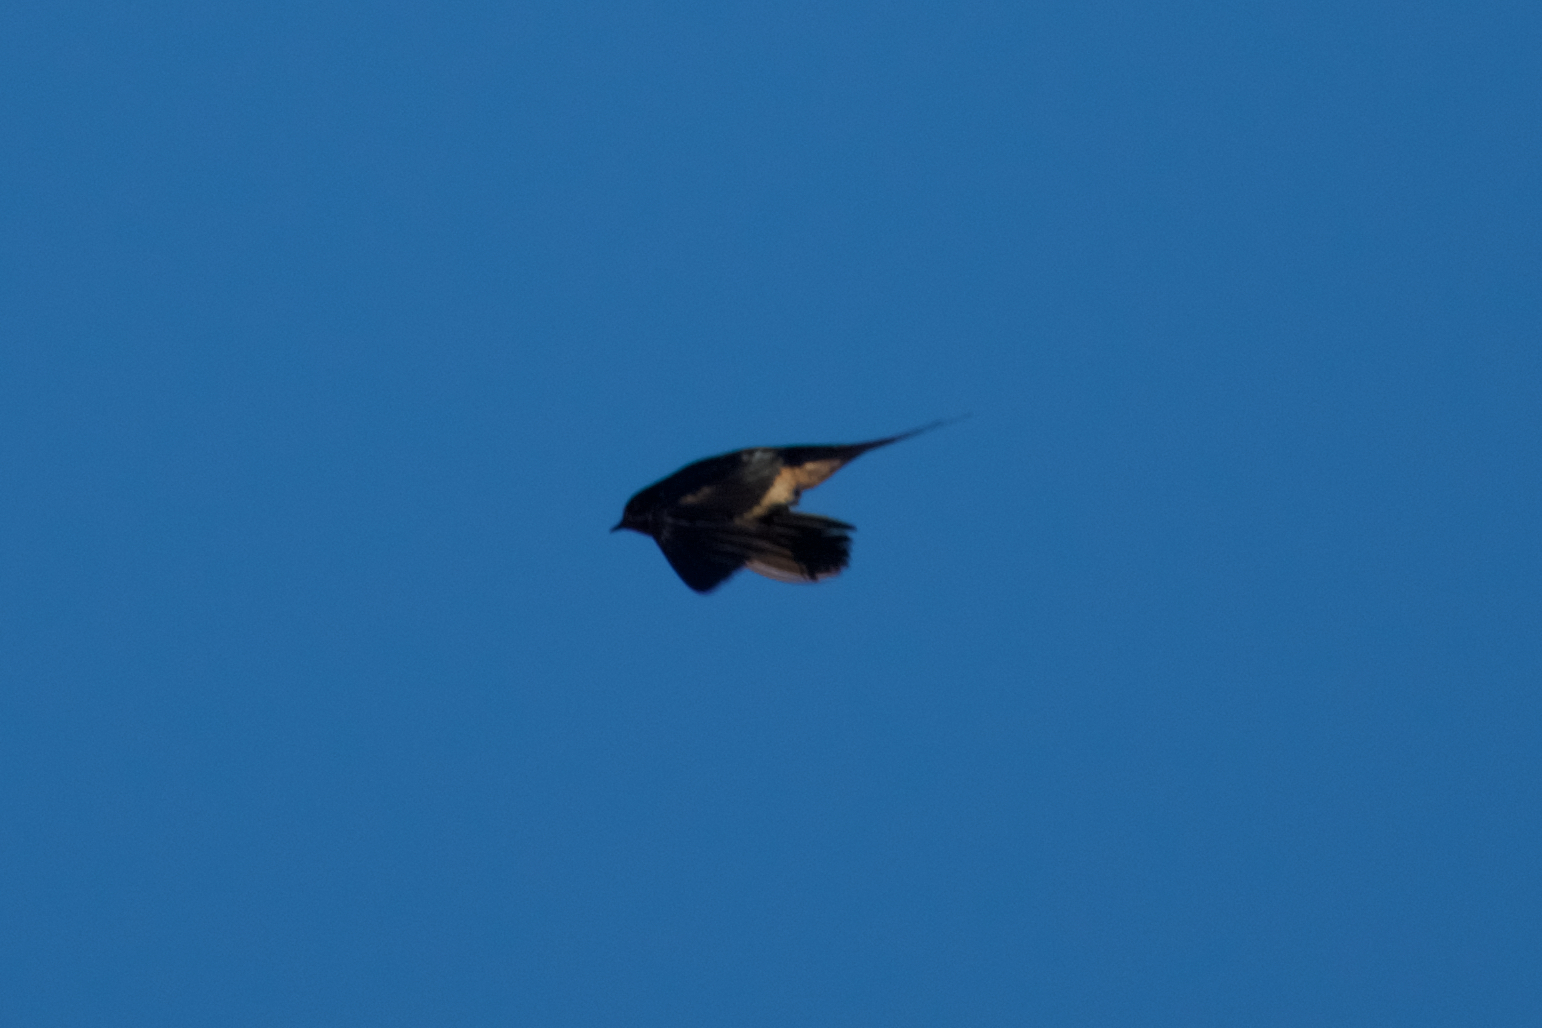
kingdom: Animalia
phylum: Chordata
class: Aves
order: Passeriformes
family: Hirundinidae
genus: Hirundo
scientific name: Hirundo rustica
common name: Barn swallow
